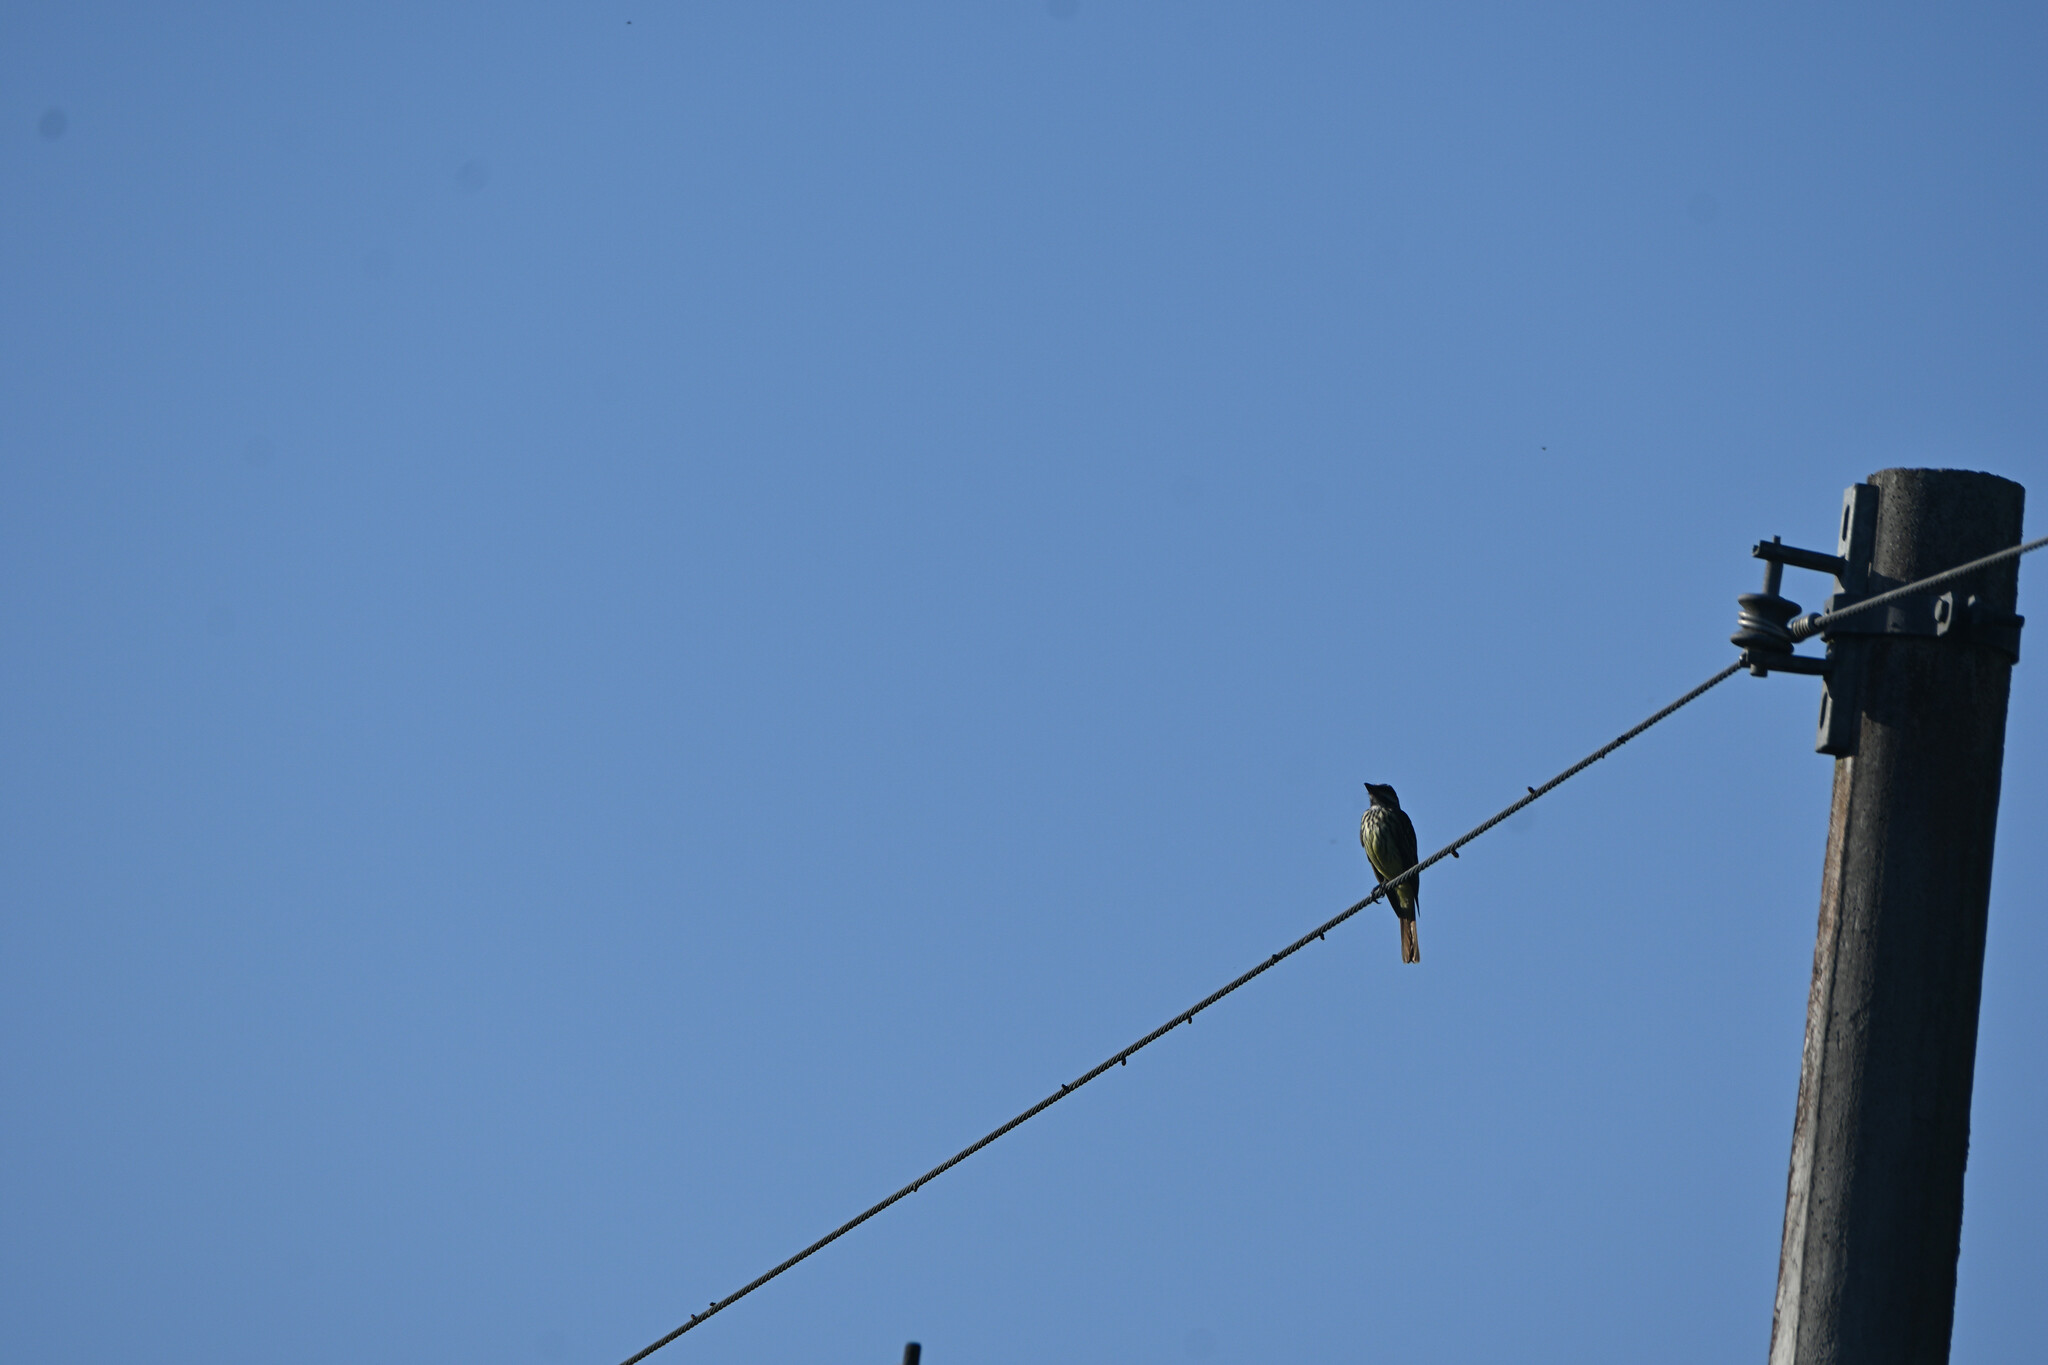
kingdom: Animalia
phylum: Chordata
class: Aves
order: Passeriformes
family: Tyrannidae
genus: Myiodynastes
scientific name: Myiodynastes luteiventris
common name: Sulphur-bellied flycatcher
